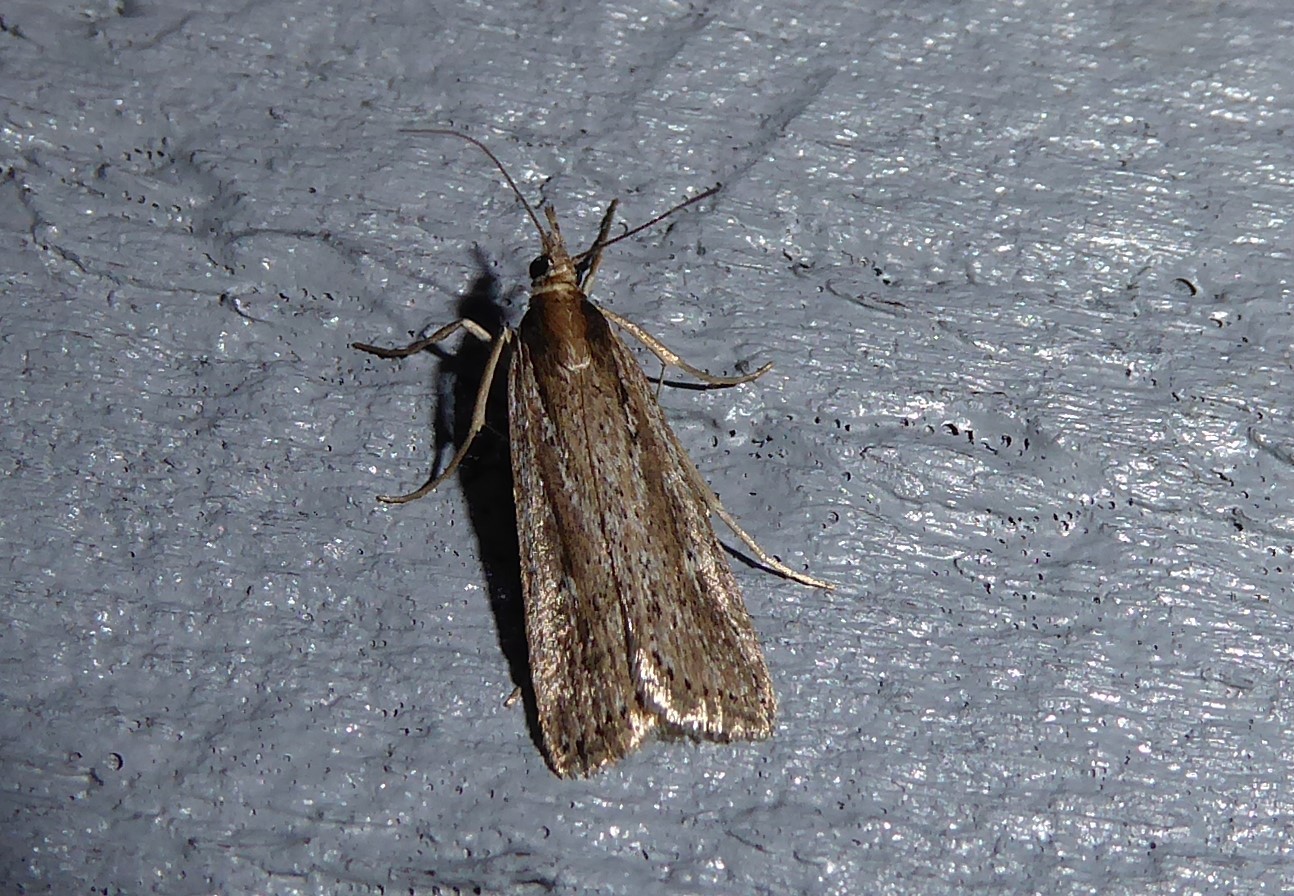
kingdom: Animalia
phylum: Arthropoda
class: Insecta
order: Lepidoptera
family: Crambidae
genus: Eudonia
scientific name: Eudonia sabulosella
